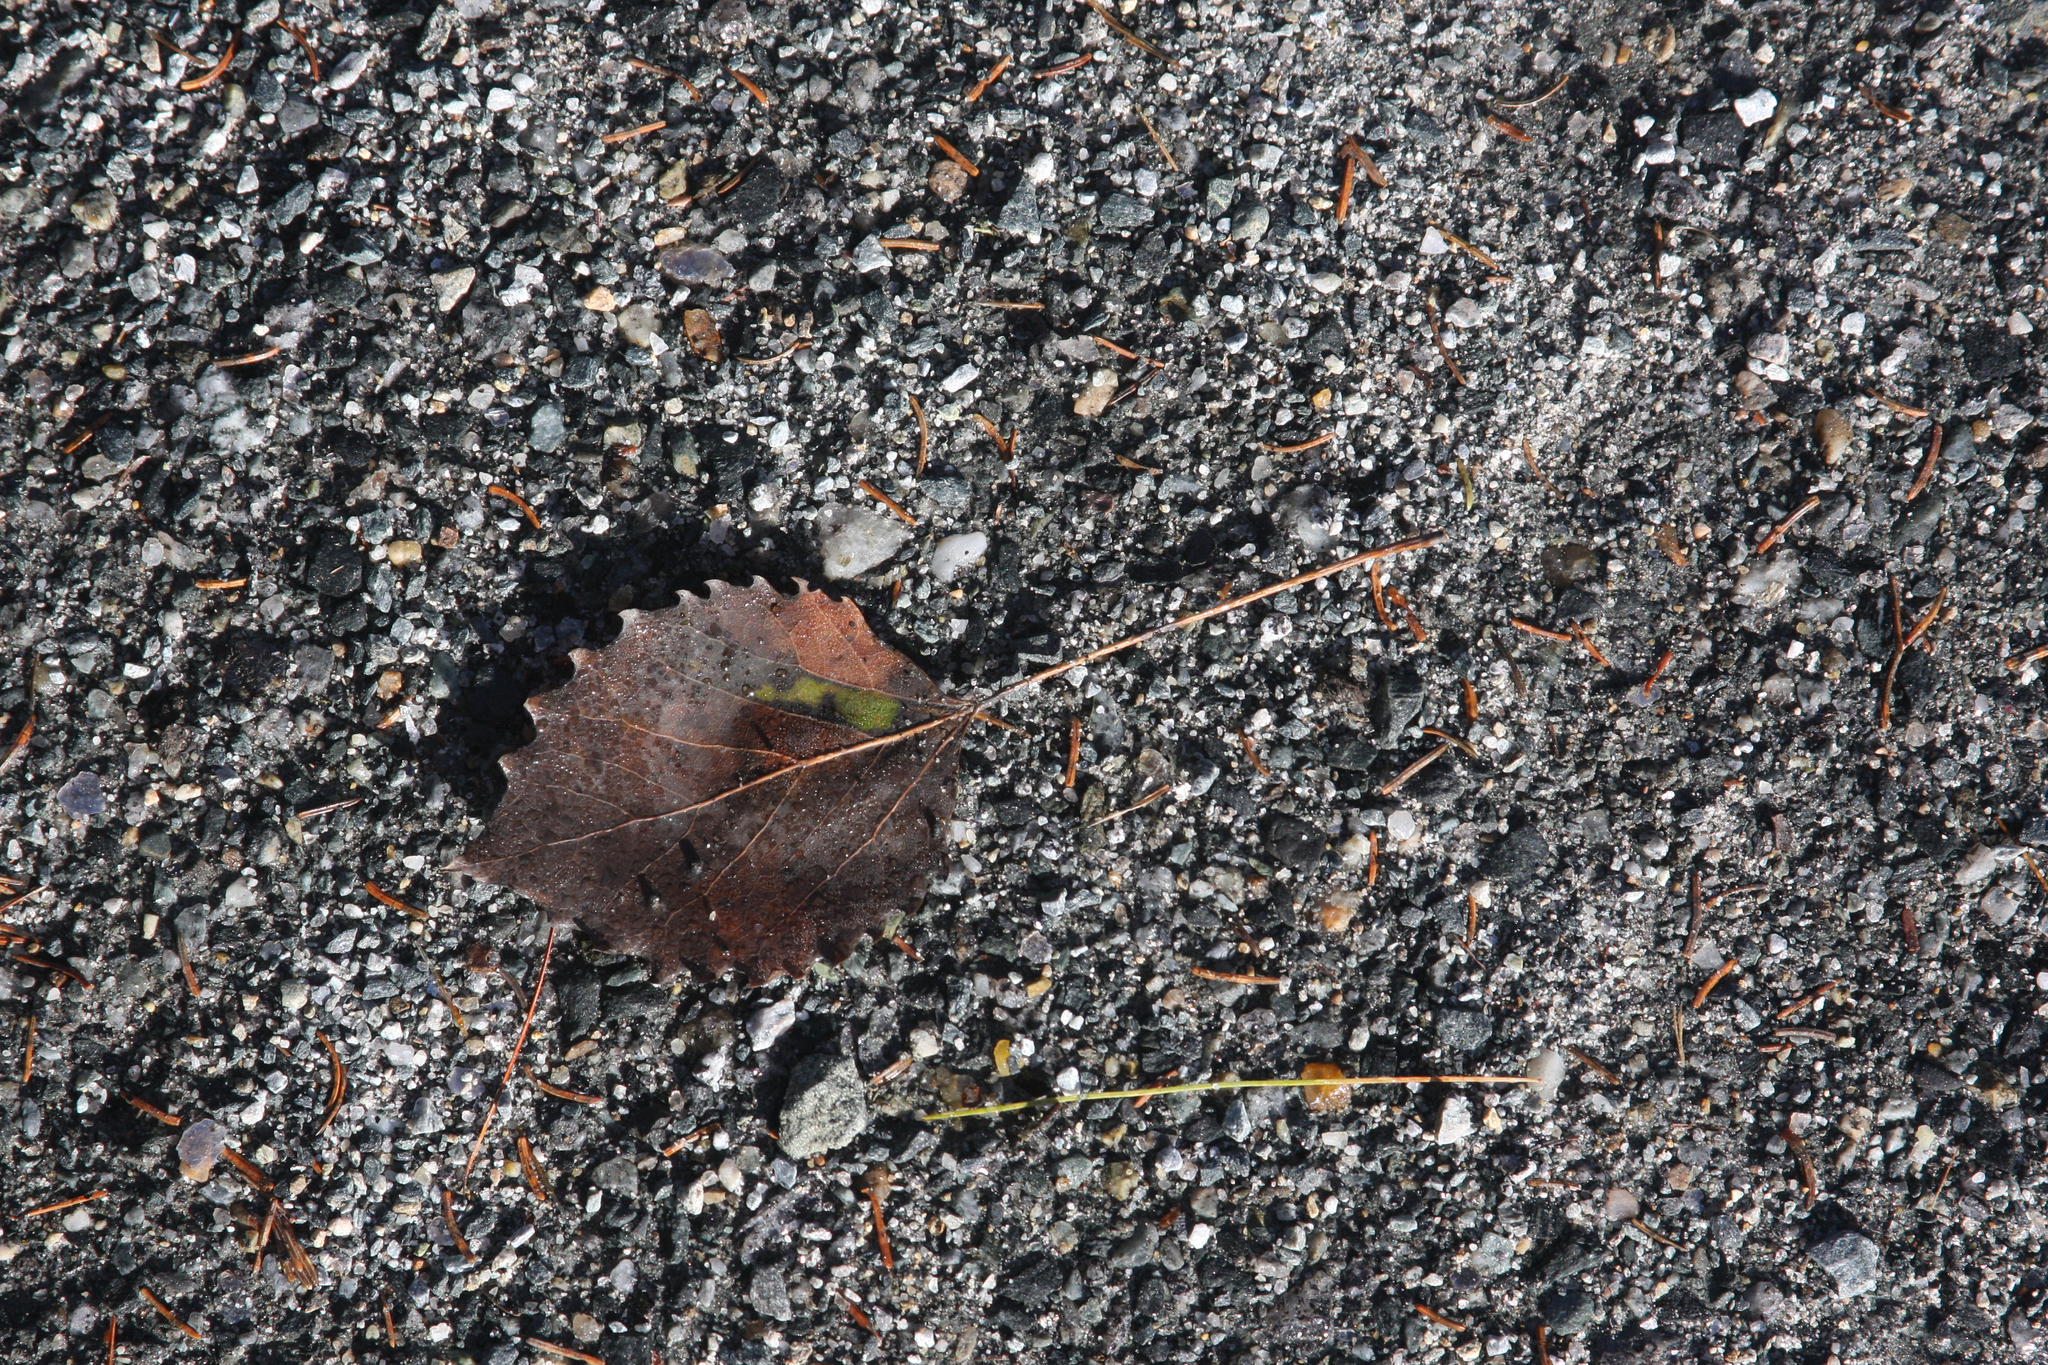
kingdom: Plantae
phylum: Tracheophyta
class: Magnoliopsida
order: Malpighiales
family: Salicaceae
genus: Populus
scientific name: Populus grandidentata
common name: Bigtooth aspen
